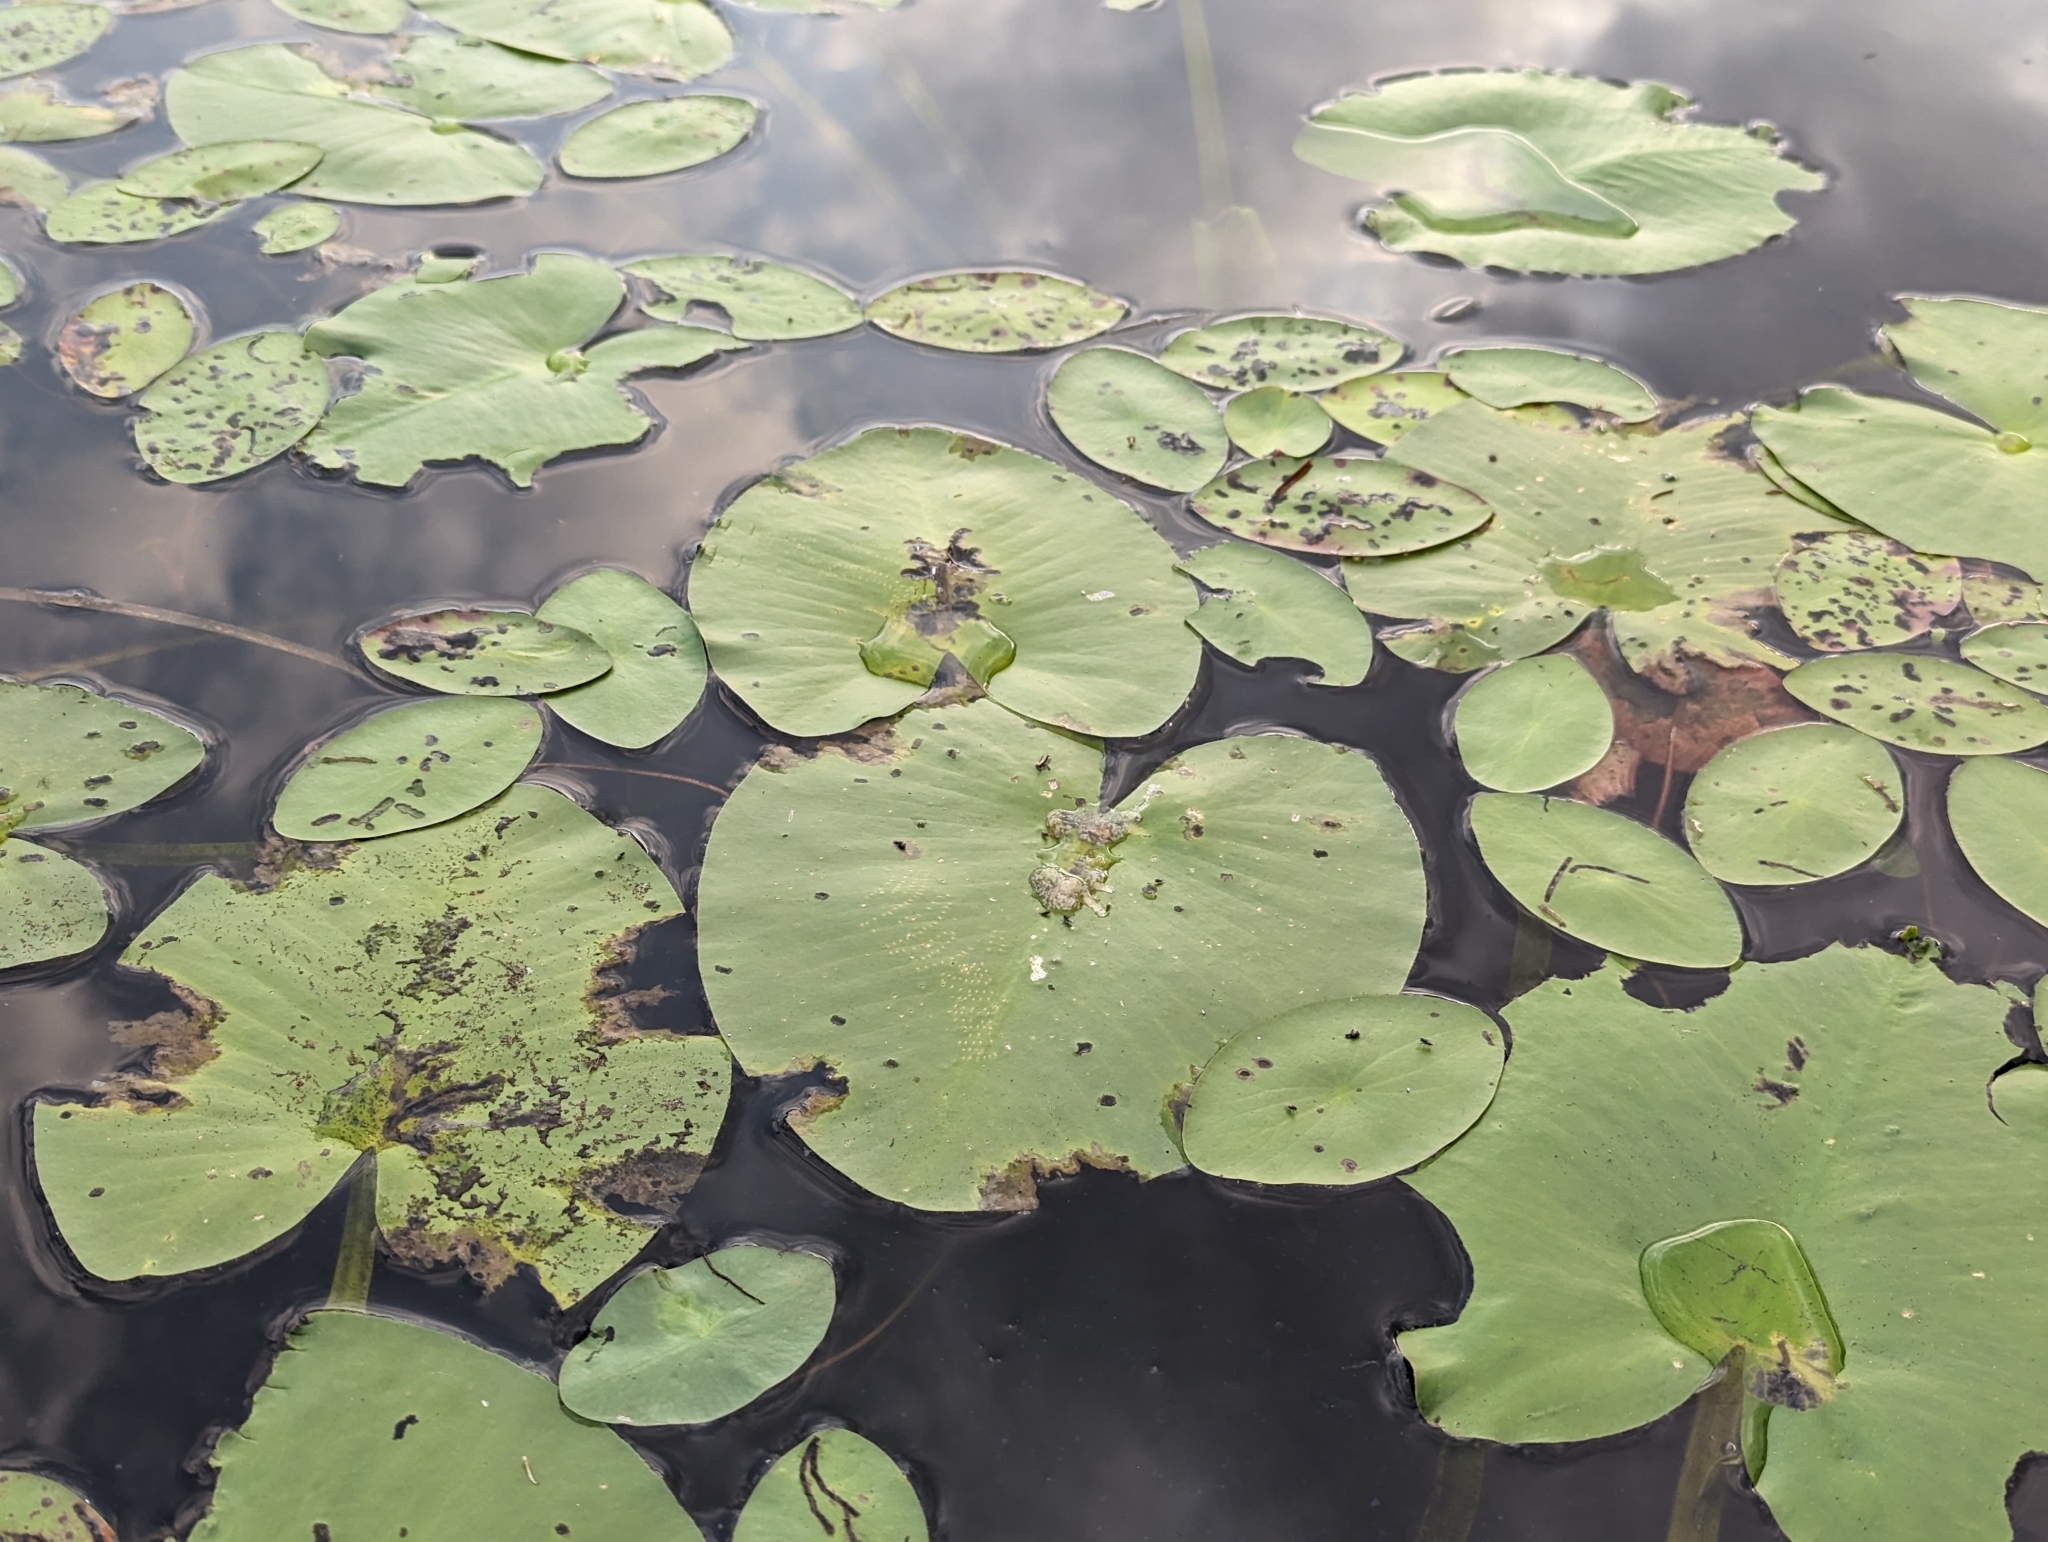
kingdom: Plantae
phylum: Tracheophyta
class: Magnoliopsida
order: Nymphaeales
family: Nymphaeaceae
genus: Nuphar
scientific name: Nuphar variegata
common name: Beaver-root
